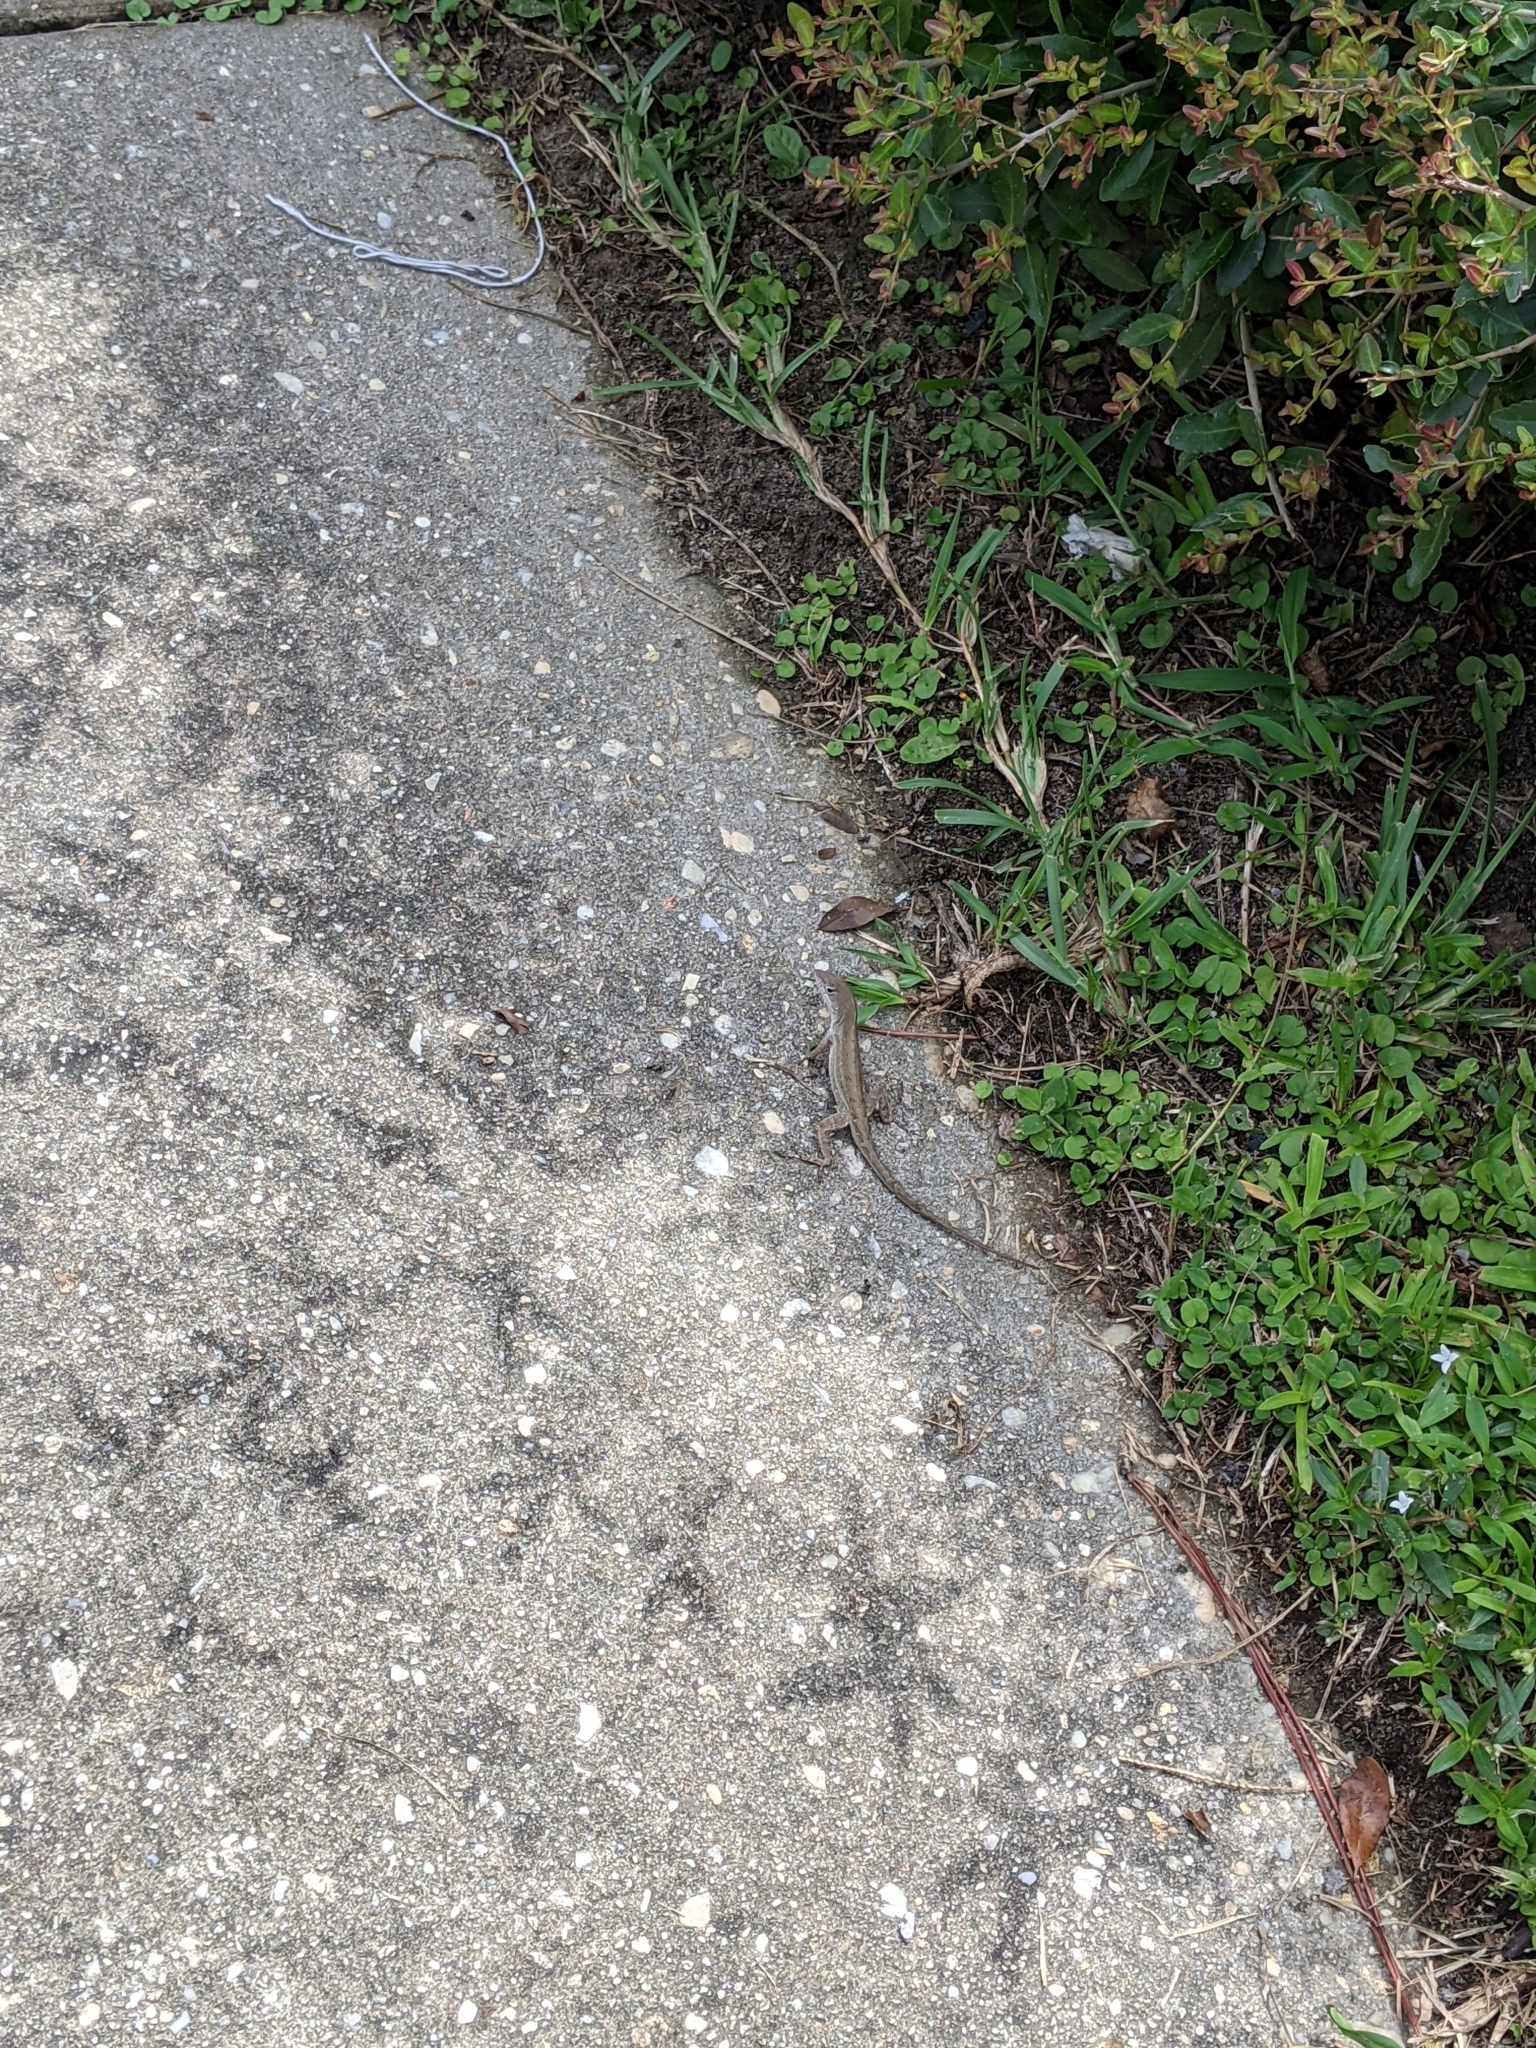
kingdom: Animalia
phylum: Chordata
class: Squamata
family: Dactyloidae
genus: Anolis
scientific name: Anolis sagrei
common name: Brown anole
